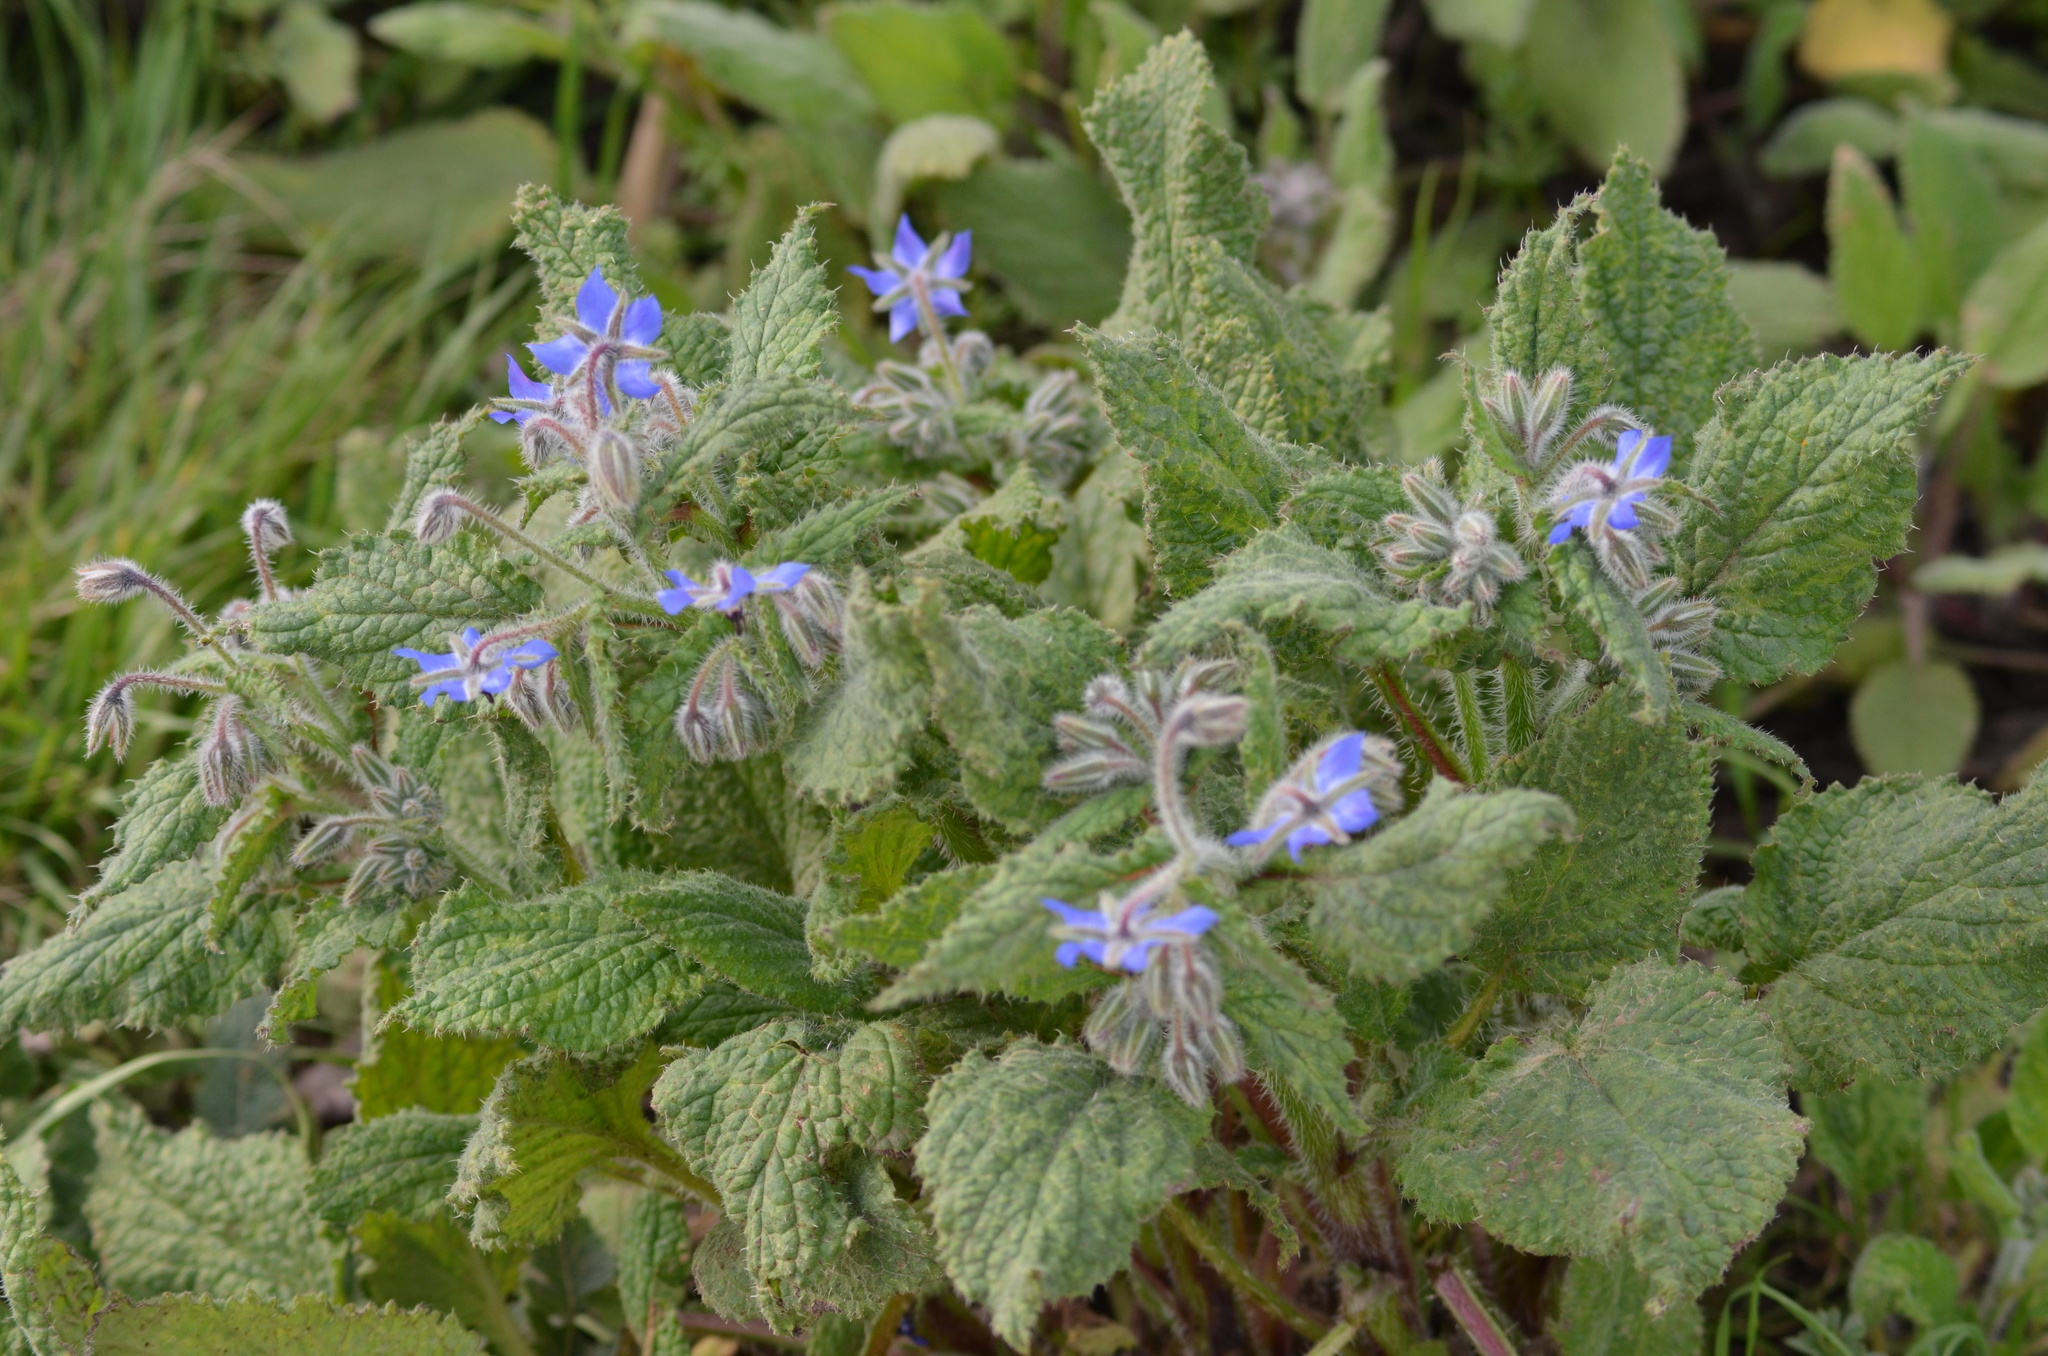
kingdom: Plantae
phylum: Tracheophyta
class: Magnoliopsida
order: Boraginales
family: Boraginaceae
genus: Borago
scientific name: Borago officinalis
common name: Borage
